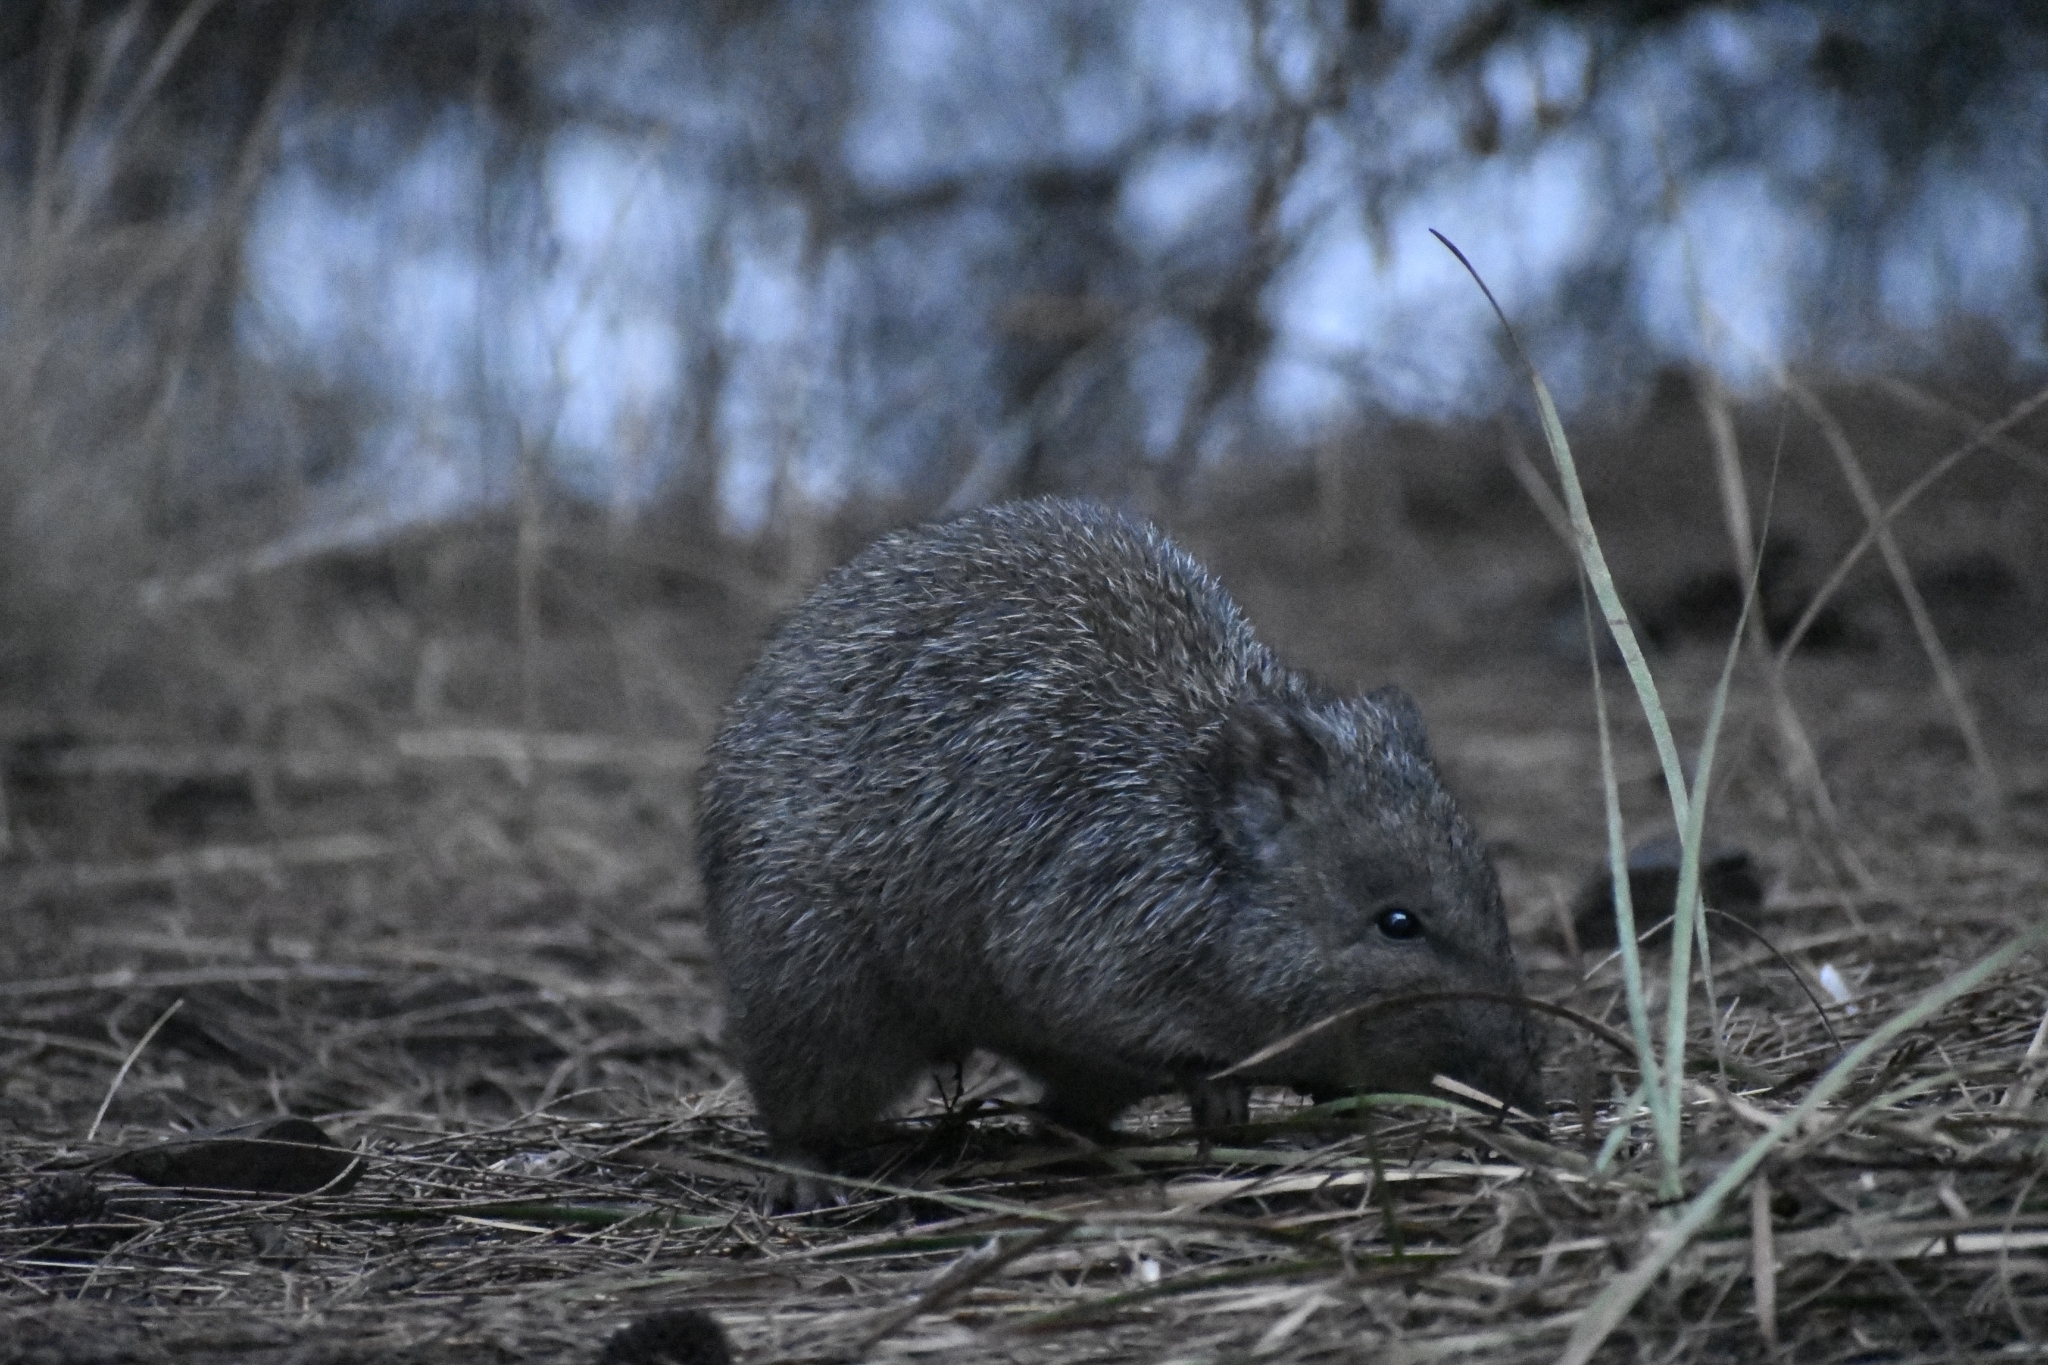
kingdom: Animalia
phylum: Chordata
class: Mammalia
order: Diprotodontia
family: Potoroidae
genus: Potorous
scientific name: Potorous tridactylus
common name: Long-nosed potoroo
